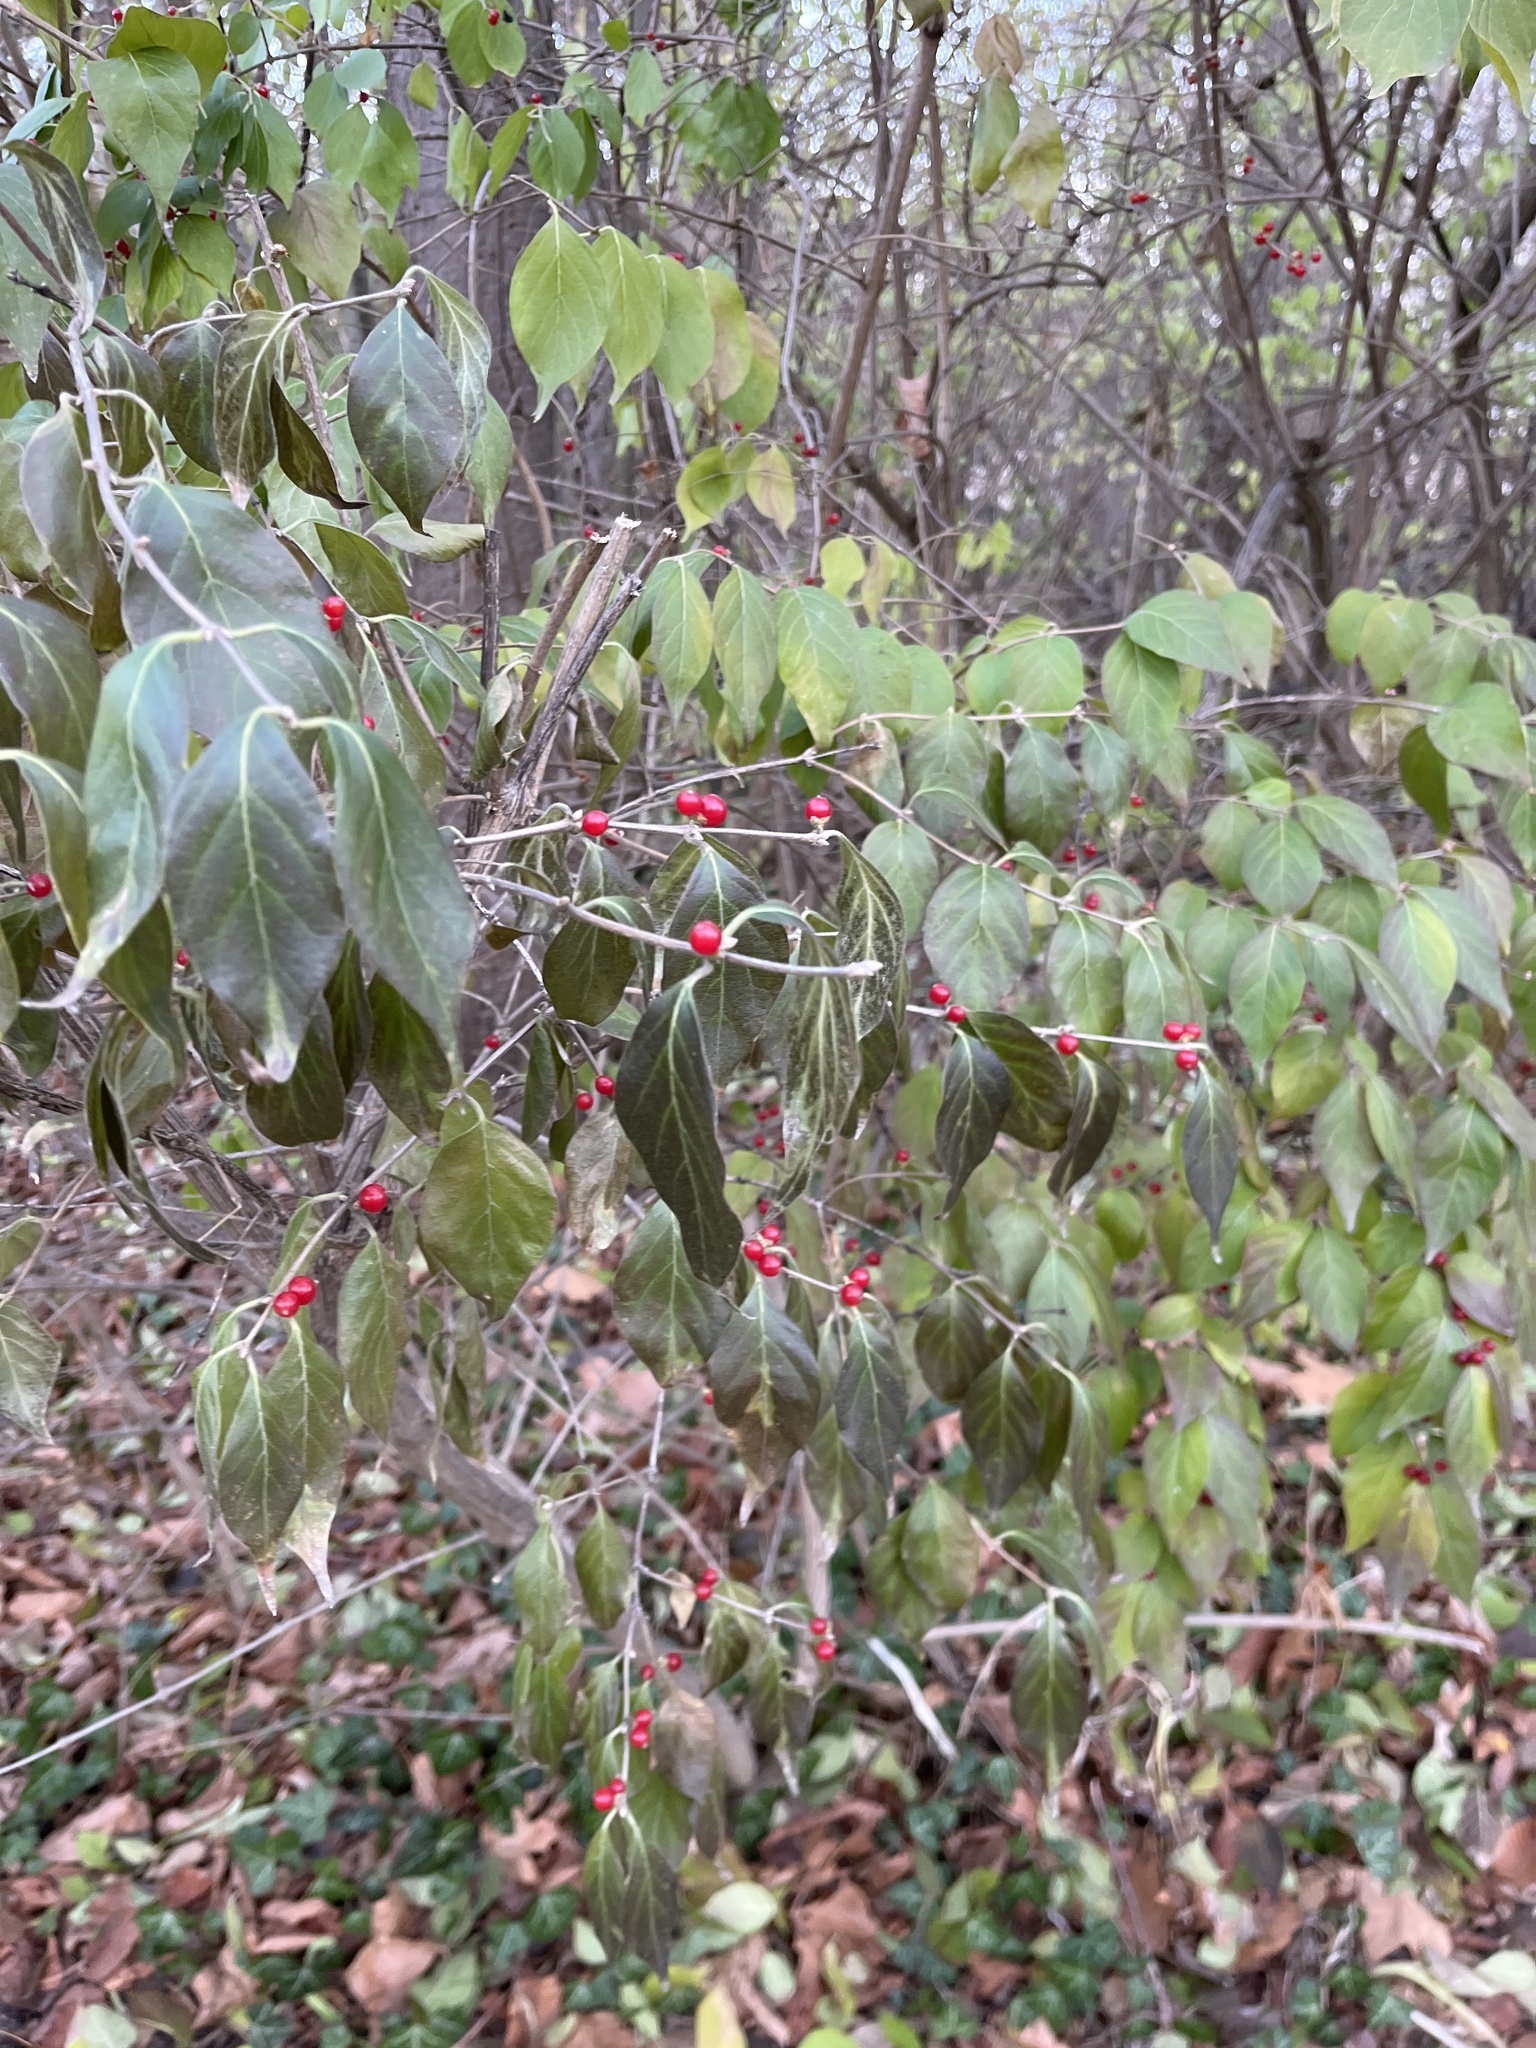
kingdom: Plantae
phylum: Tracheophyta
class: Magnoliopsida
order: Dipsacales
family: Caprifoliaceae
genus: Lonicera
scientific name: Lonicera maackii
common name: Amur honeysuckle
